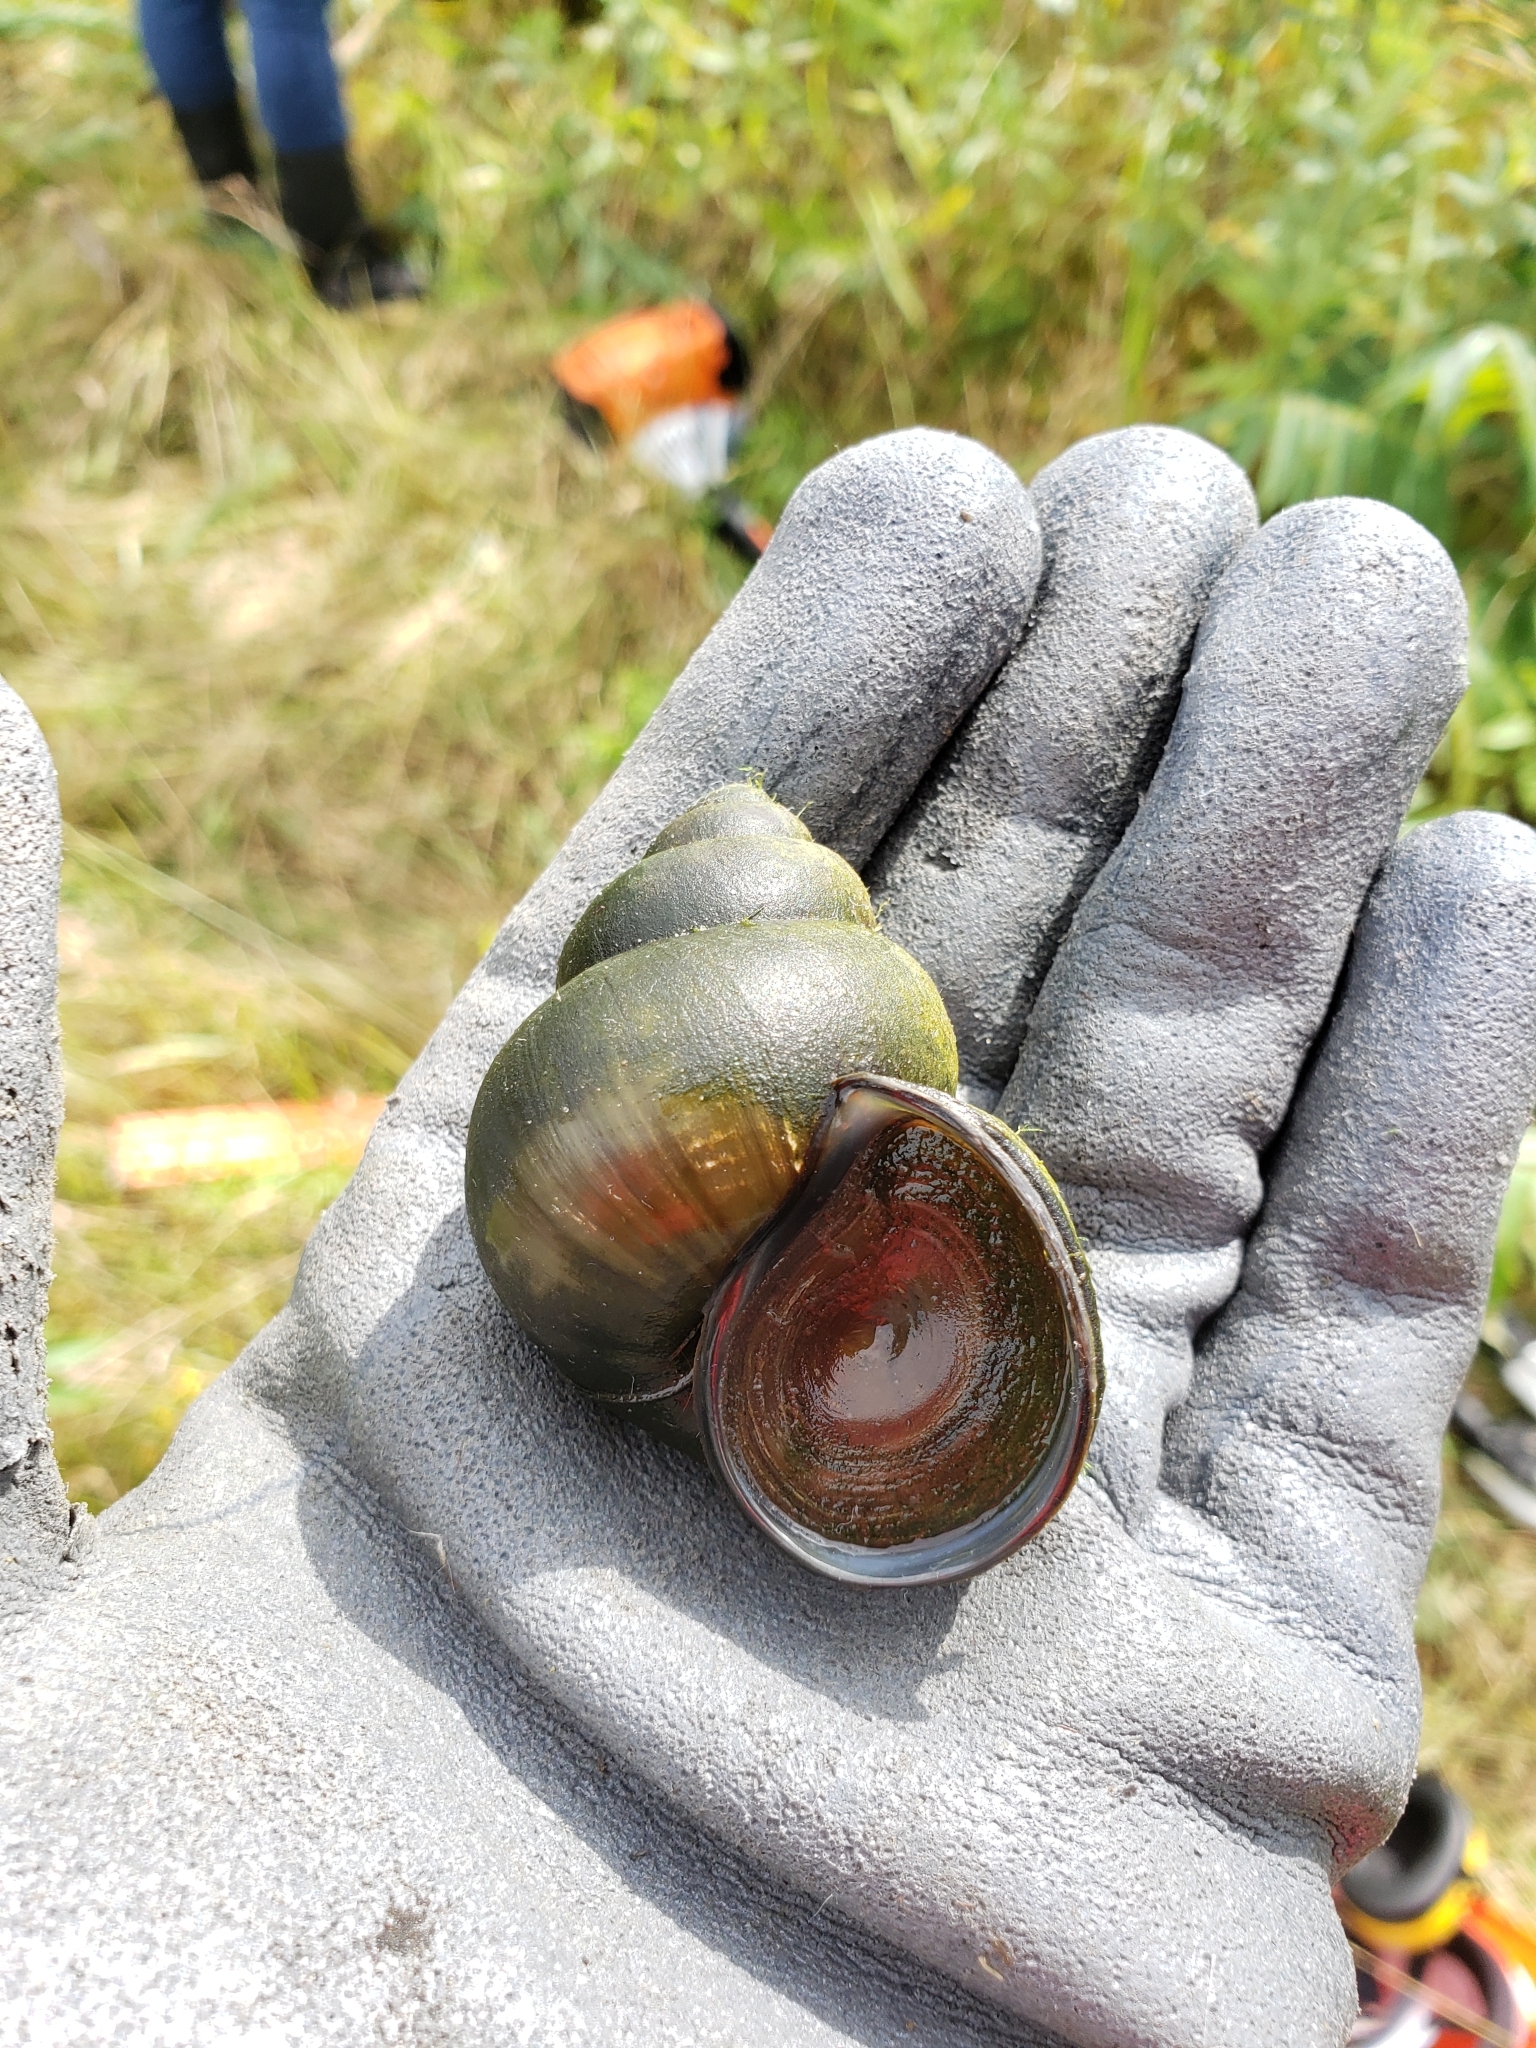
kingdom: Animalia
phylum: Mollusca
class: Gastropoda
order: Architaenioglossa
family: Viviparidae
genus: Cipangopaludina
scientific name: Cipangopaludina chinensis
